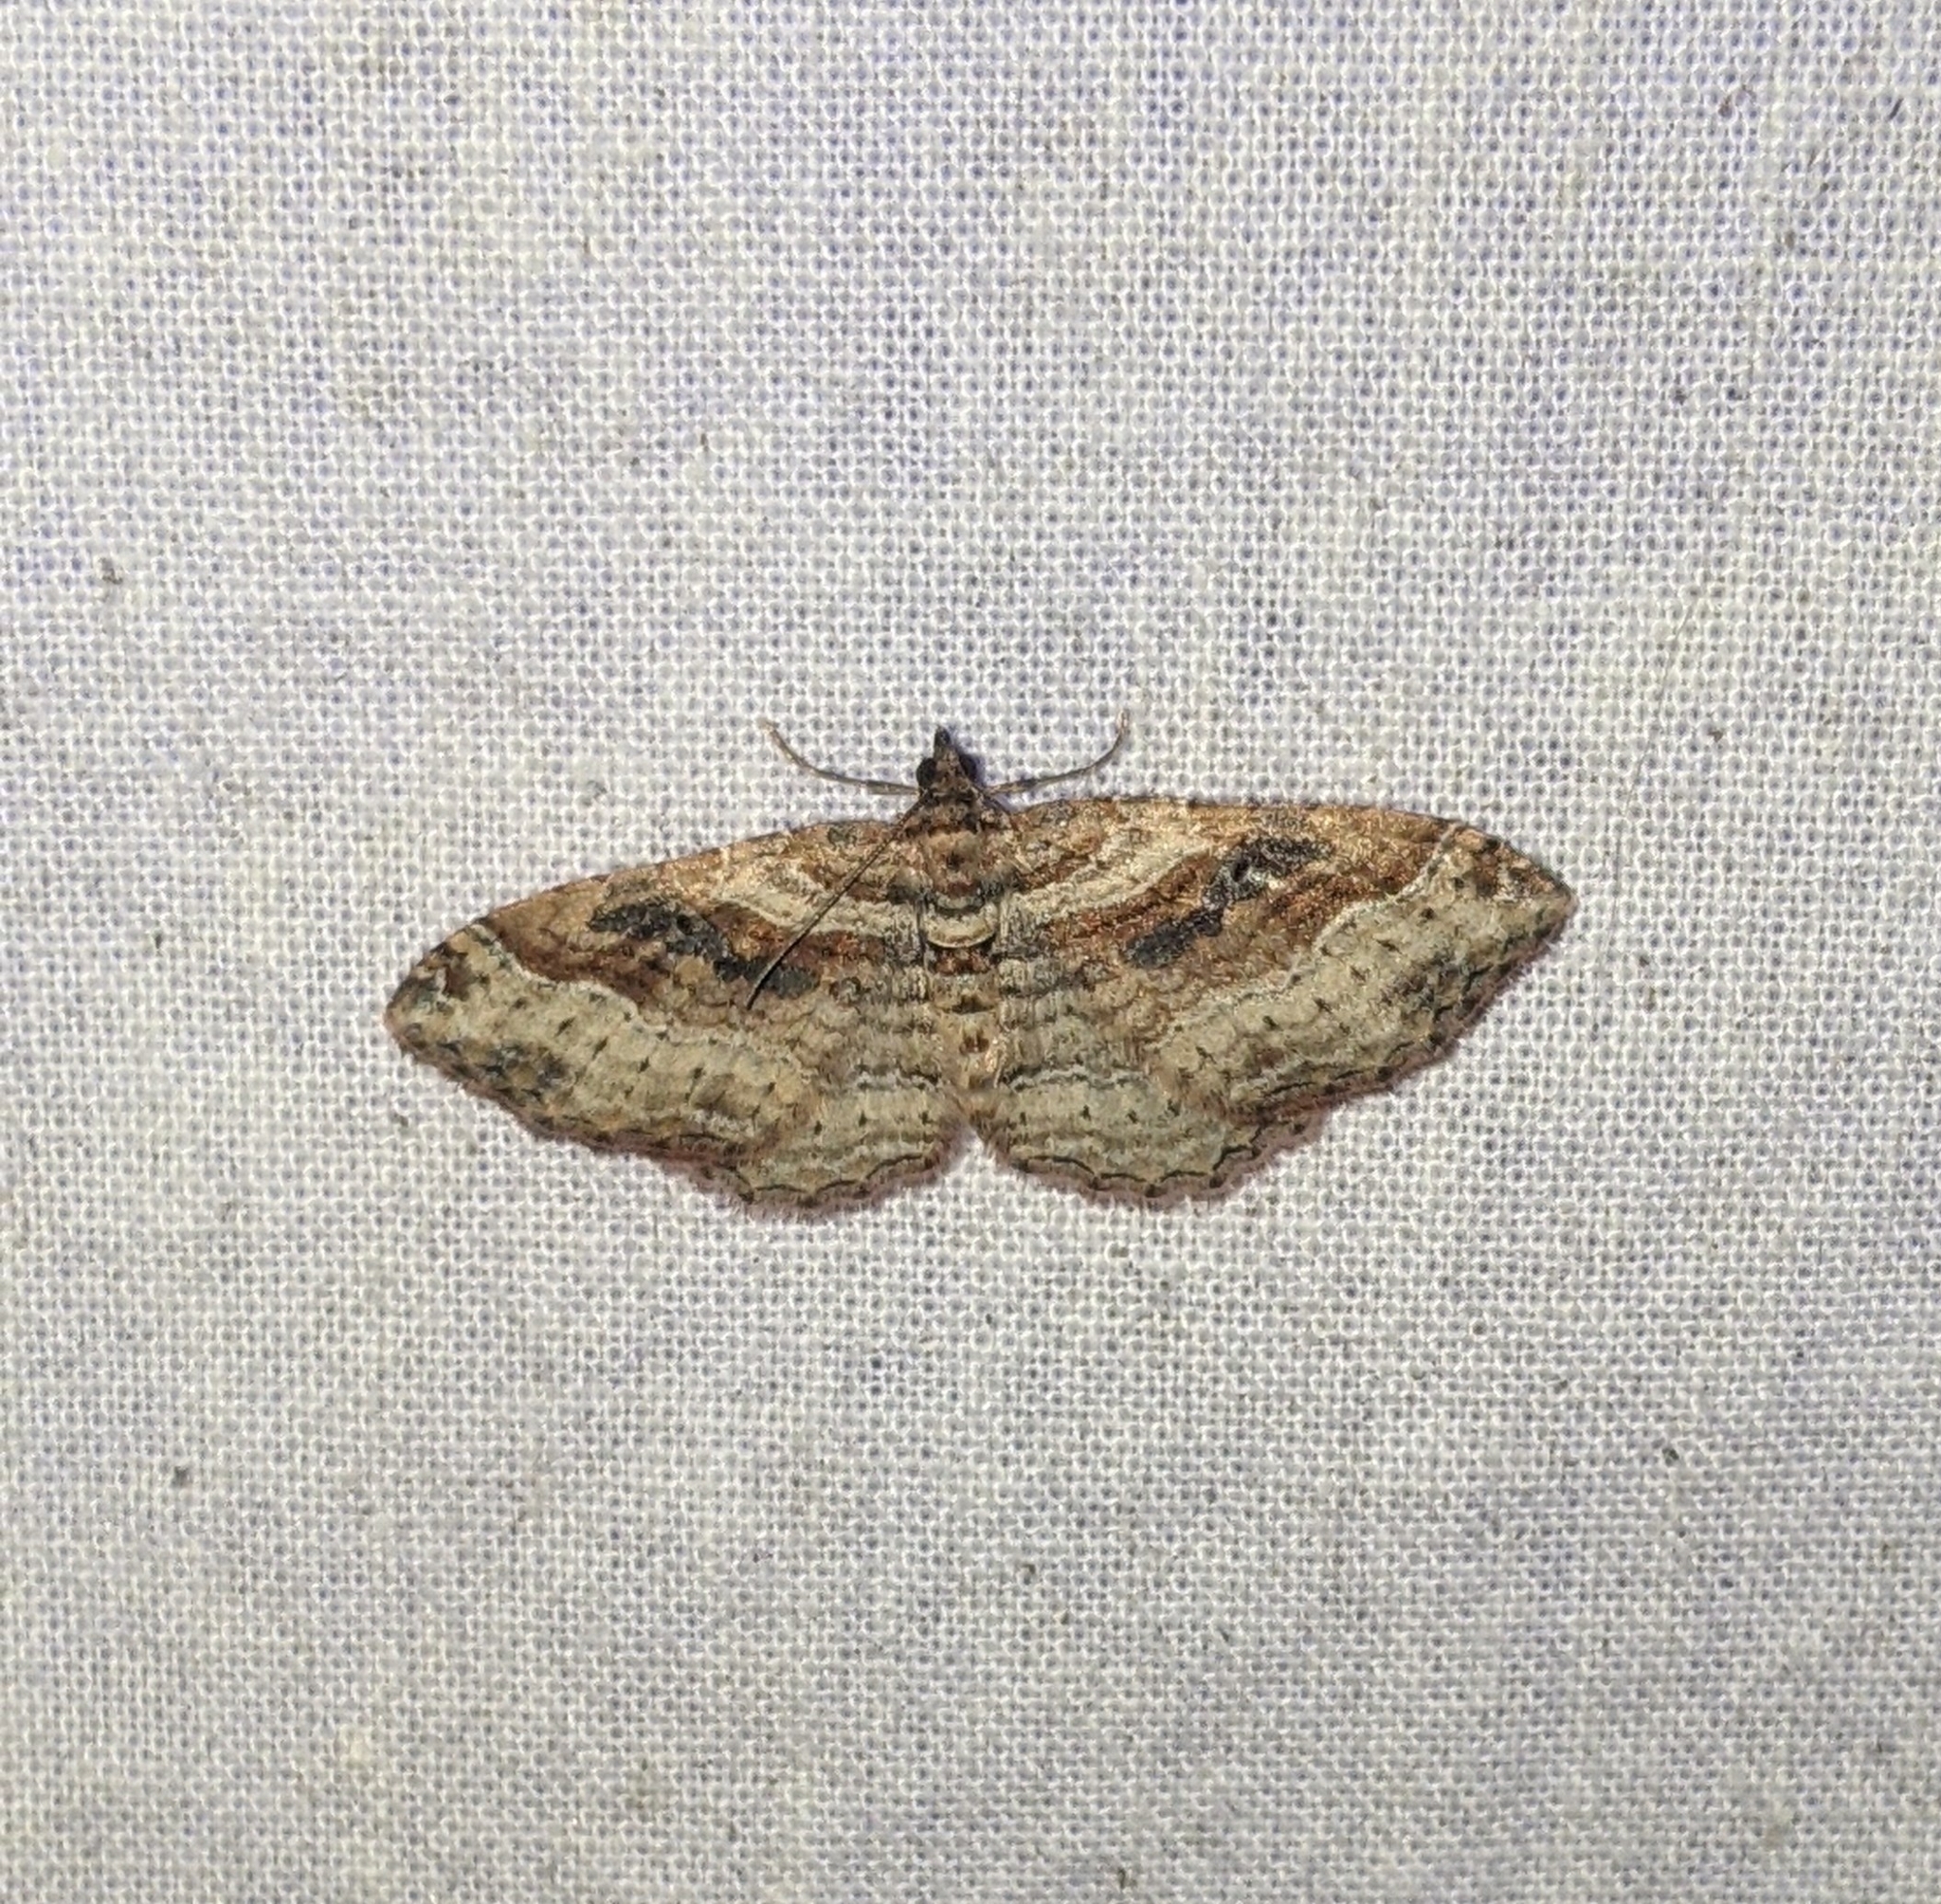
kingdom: Animalia
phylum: Arthropoda
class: Insecta
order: Lepidoptera
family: Geometridae
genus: Costaconvexa
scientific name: Costaconvexa centrostrigaria
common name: Bent-line carpet
